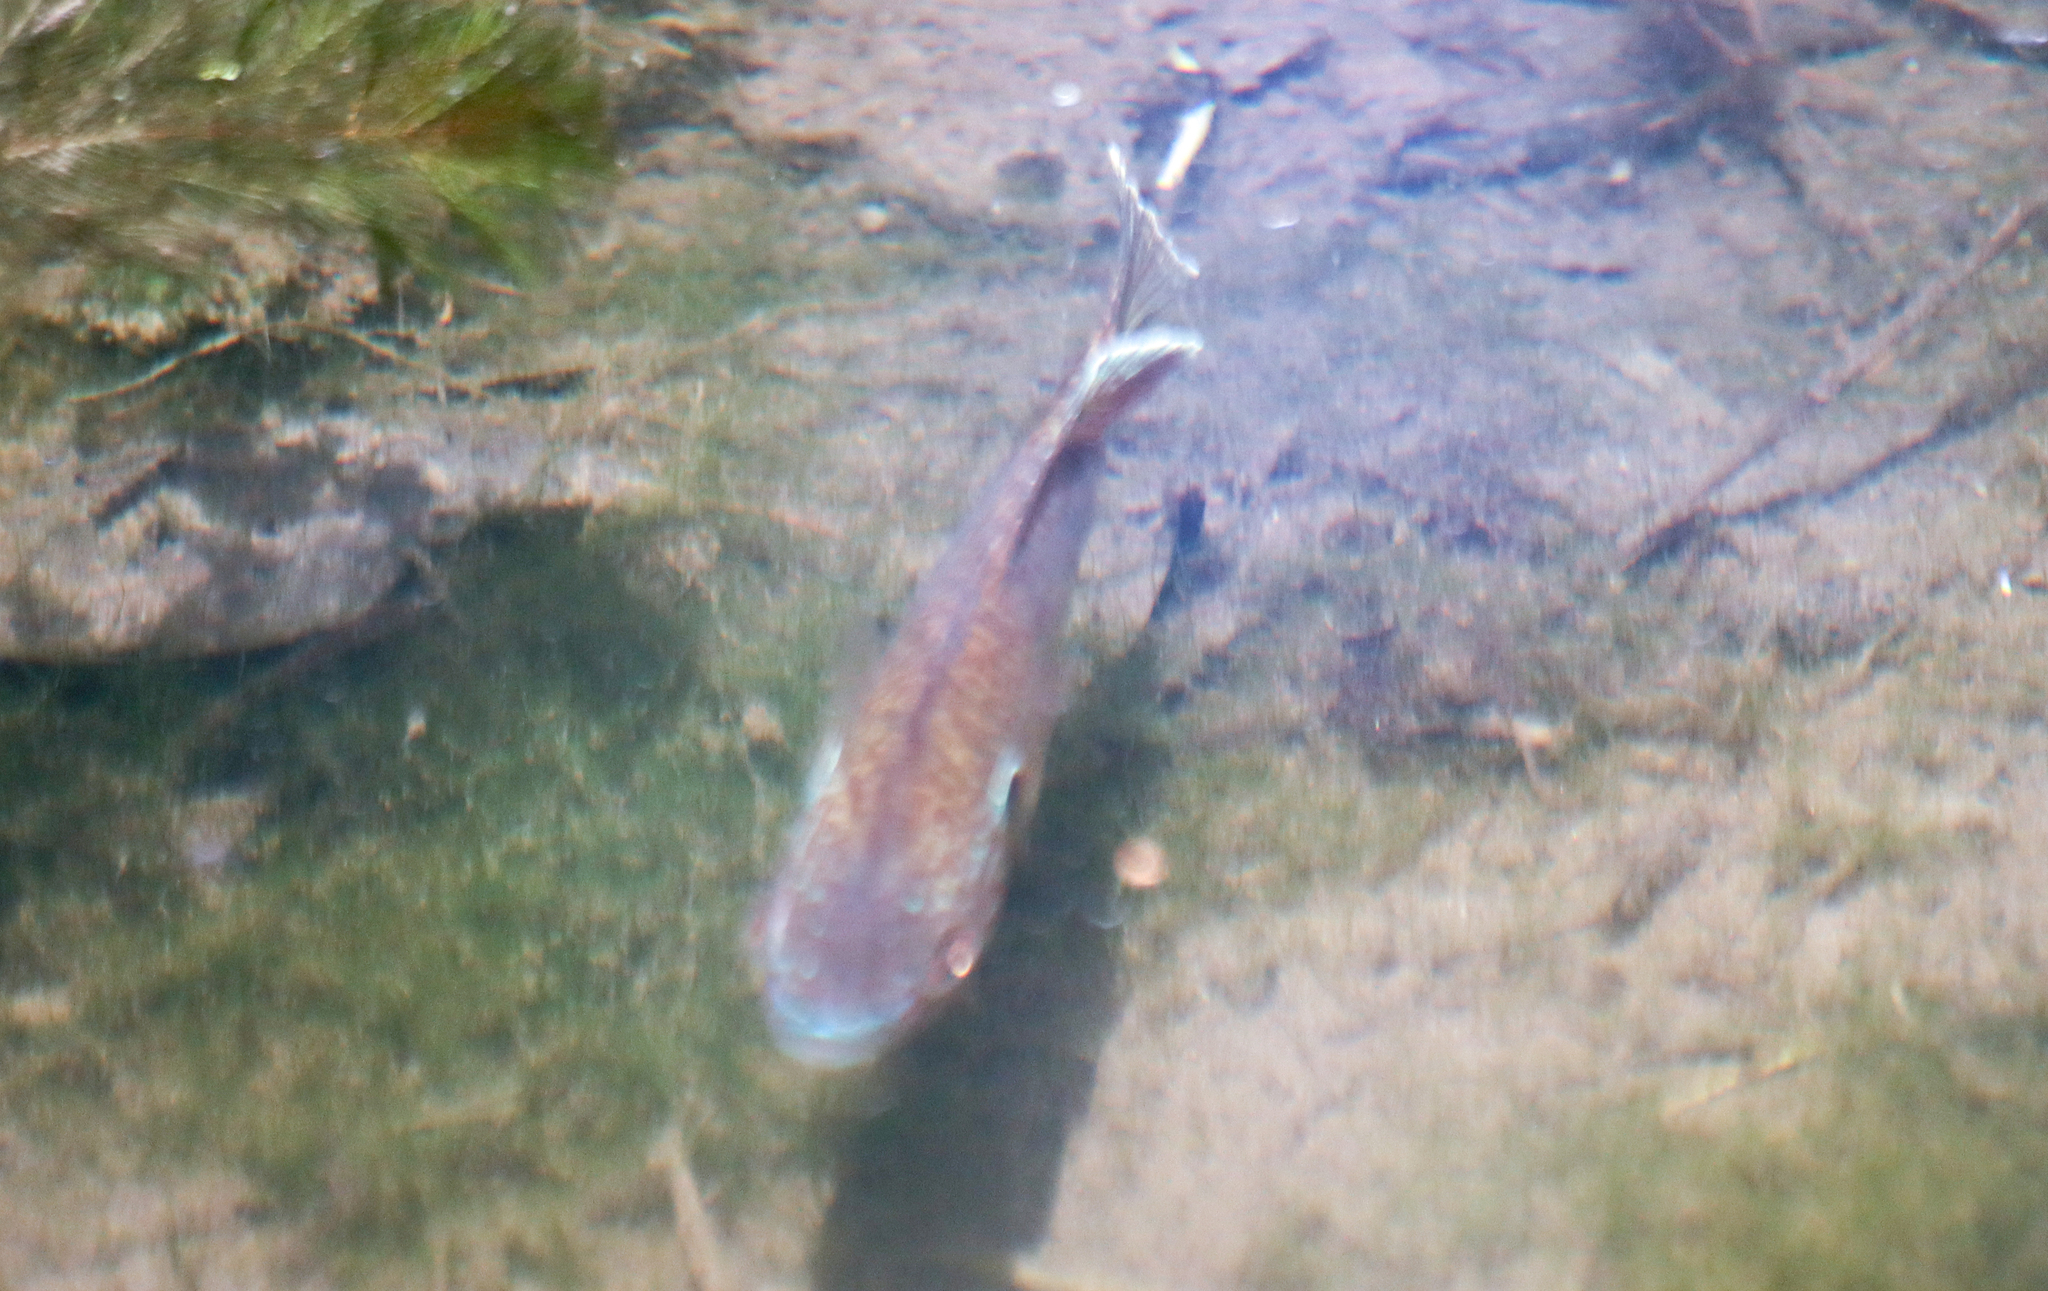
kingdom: Animalia
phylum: Chordata
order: Perciformes
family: Centrarchidae
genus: Lepomis
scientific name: Lepomis gibbosus
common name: Pumpkinseed
